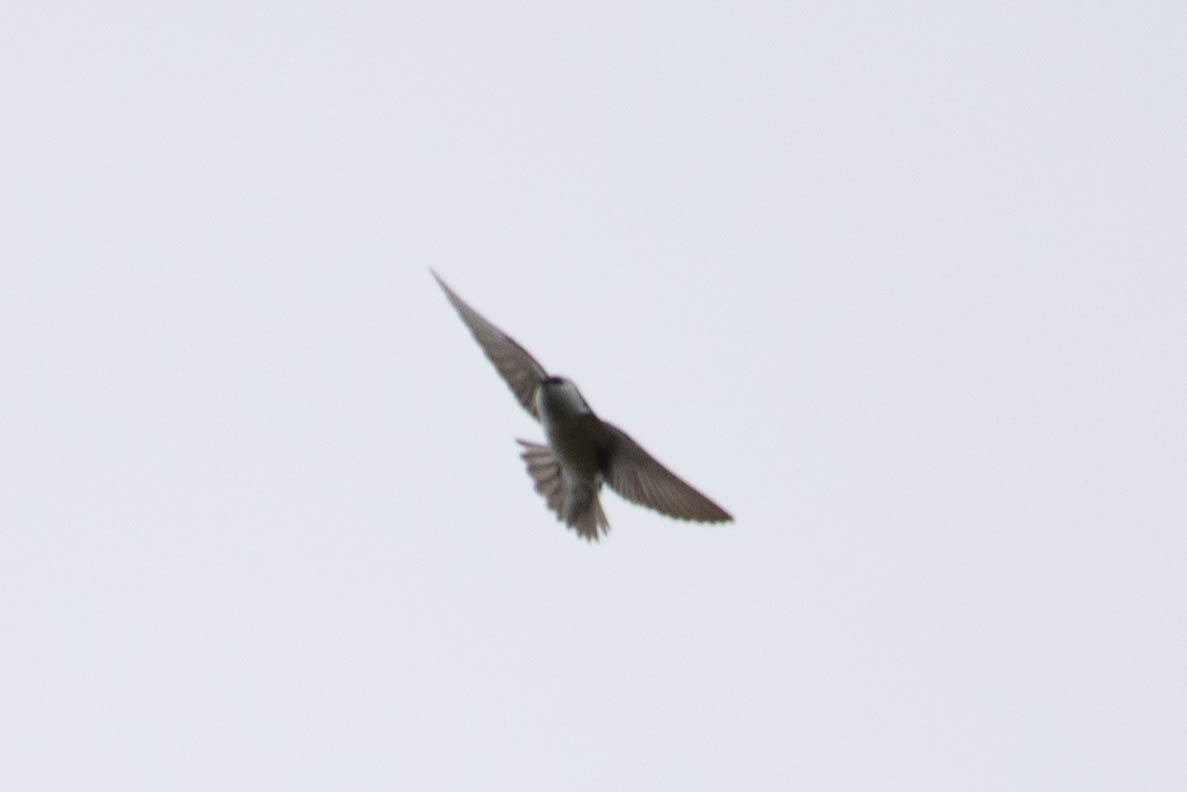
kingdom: Animalia
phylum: Chordata
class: Aves
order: Passeriformes
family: Hirundinidae
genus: Tachycineta
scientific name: Tachycineta thalassina
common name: Violet-green swallow
